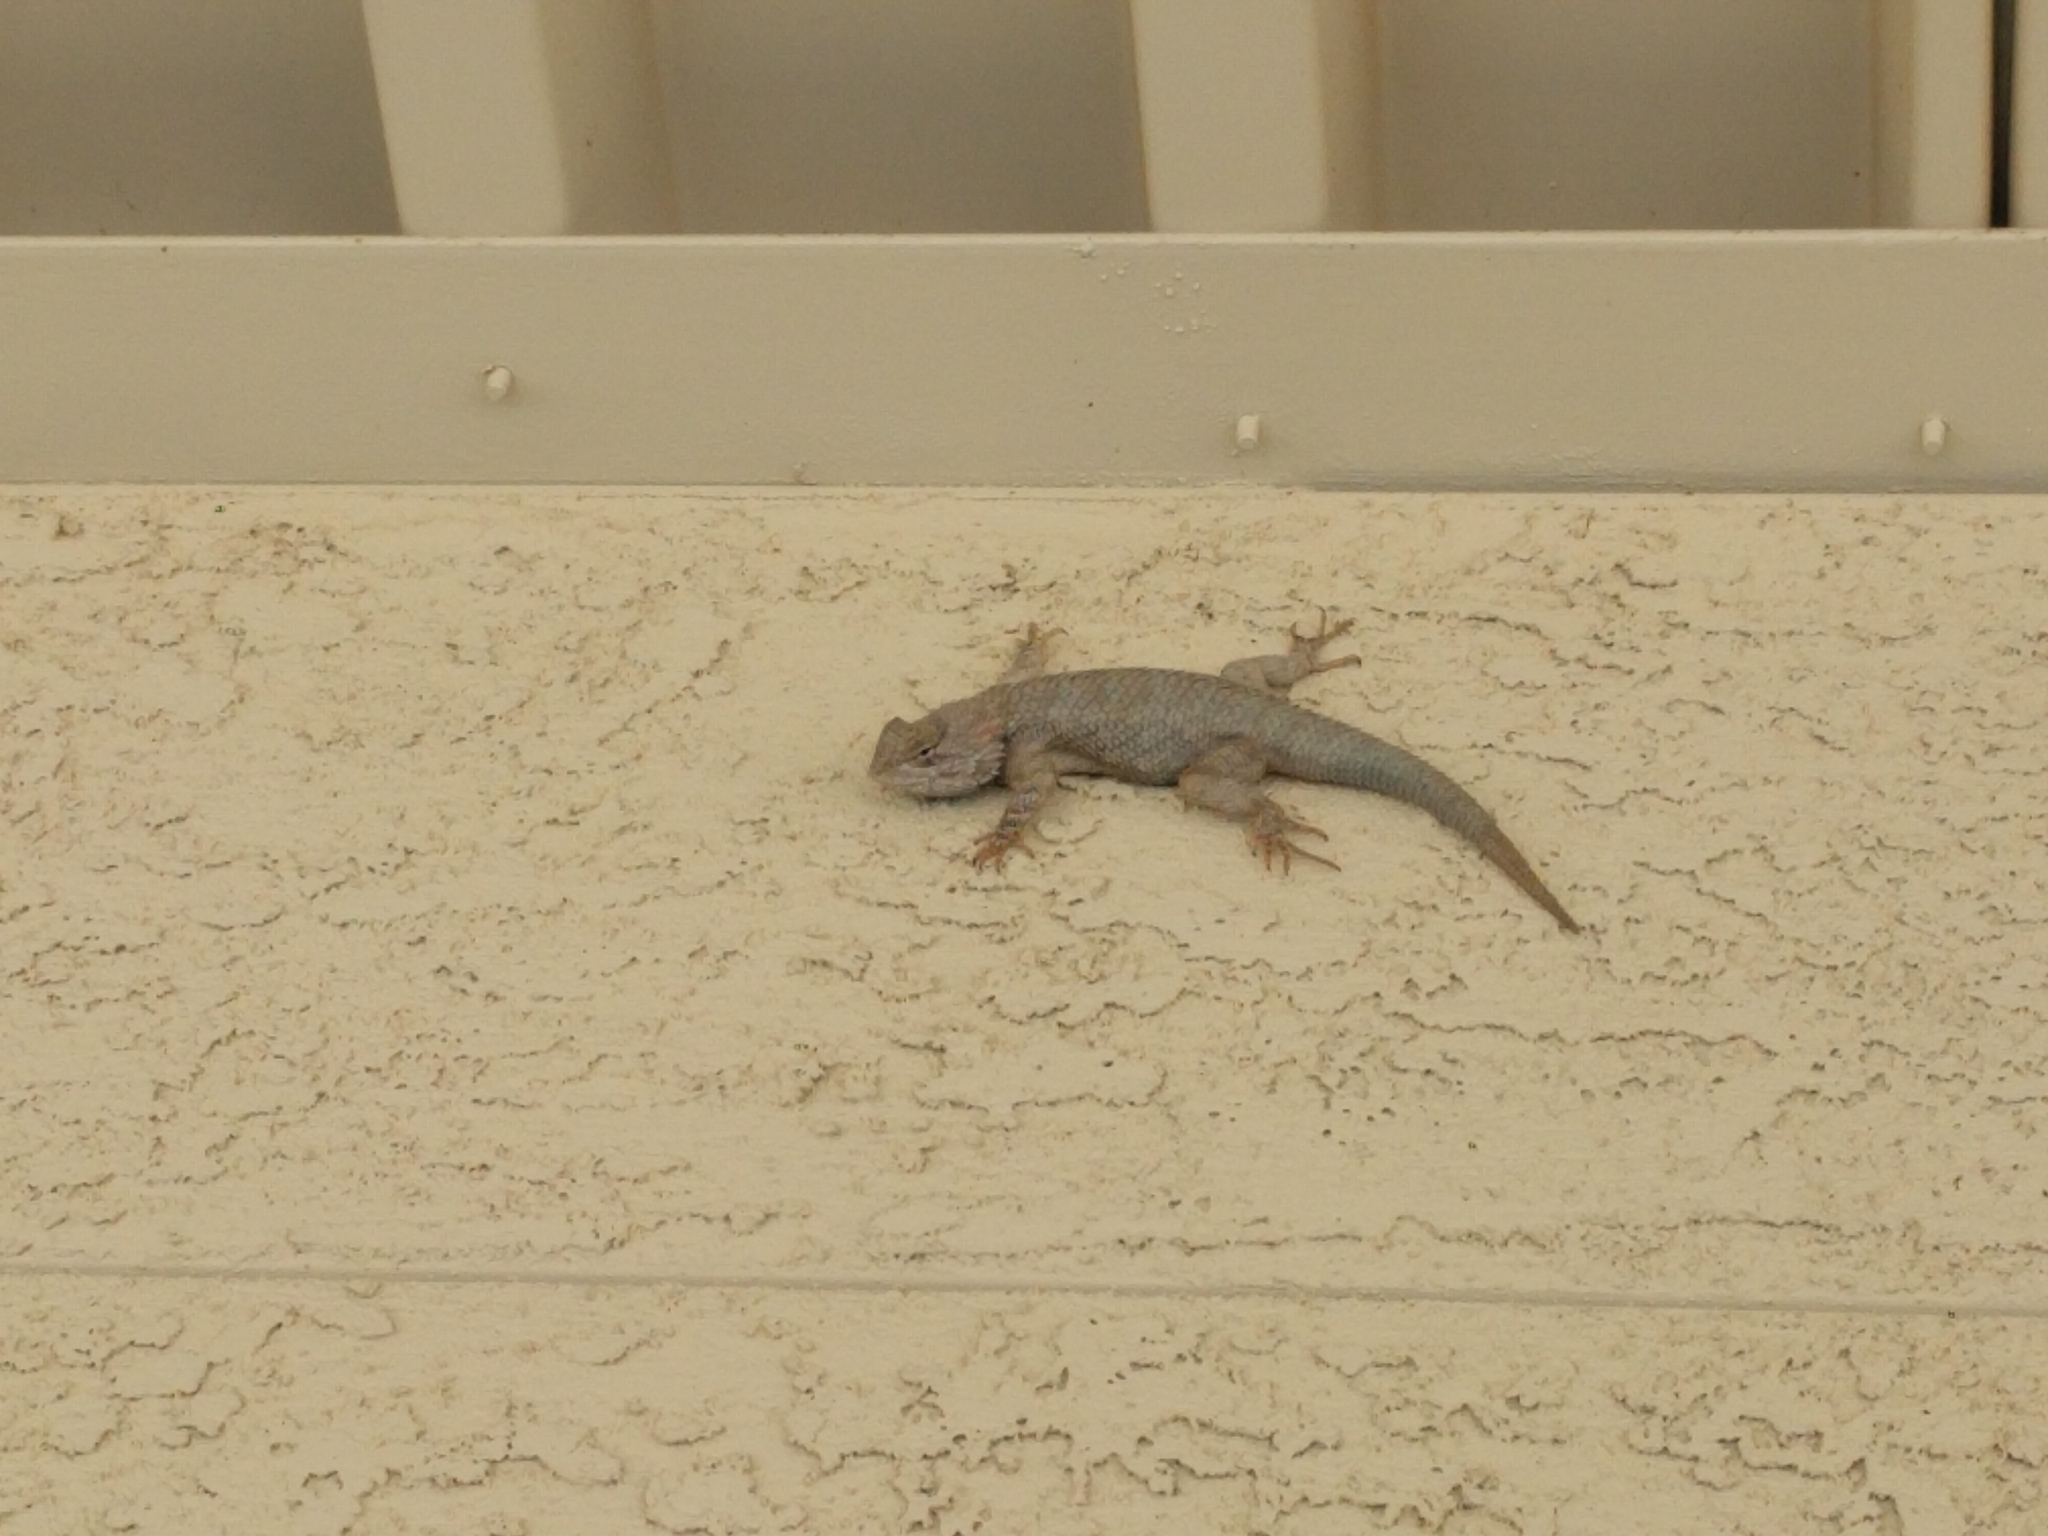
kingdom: Animalia
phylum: Chordata
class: Squamata
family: Phrynosomatidae
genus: Sceloporus
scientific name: Sceloporus clarkii
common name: Clark's spiny lizard
